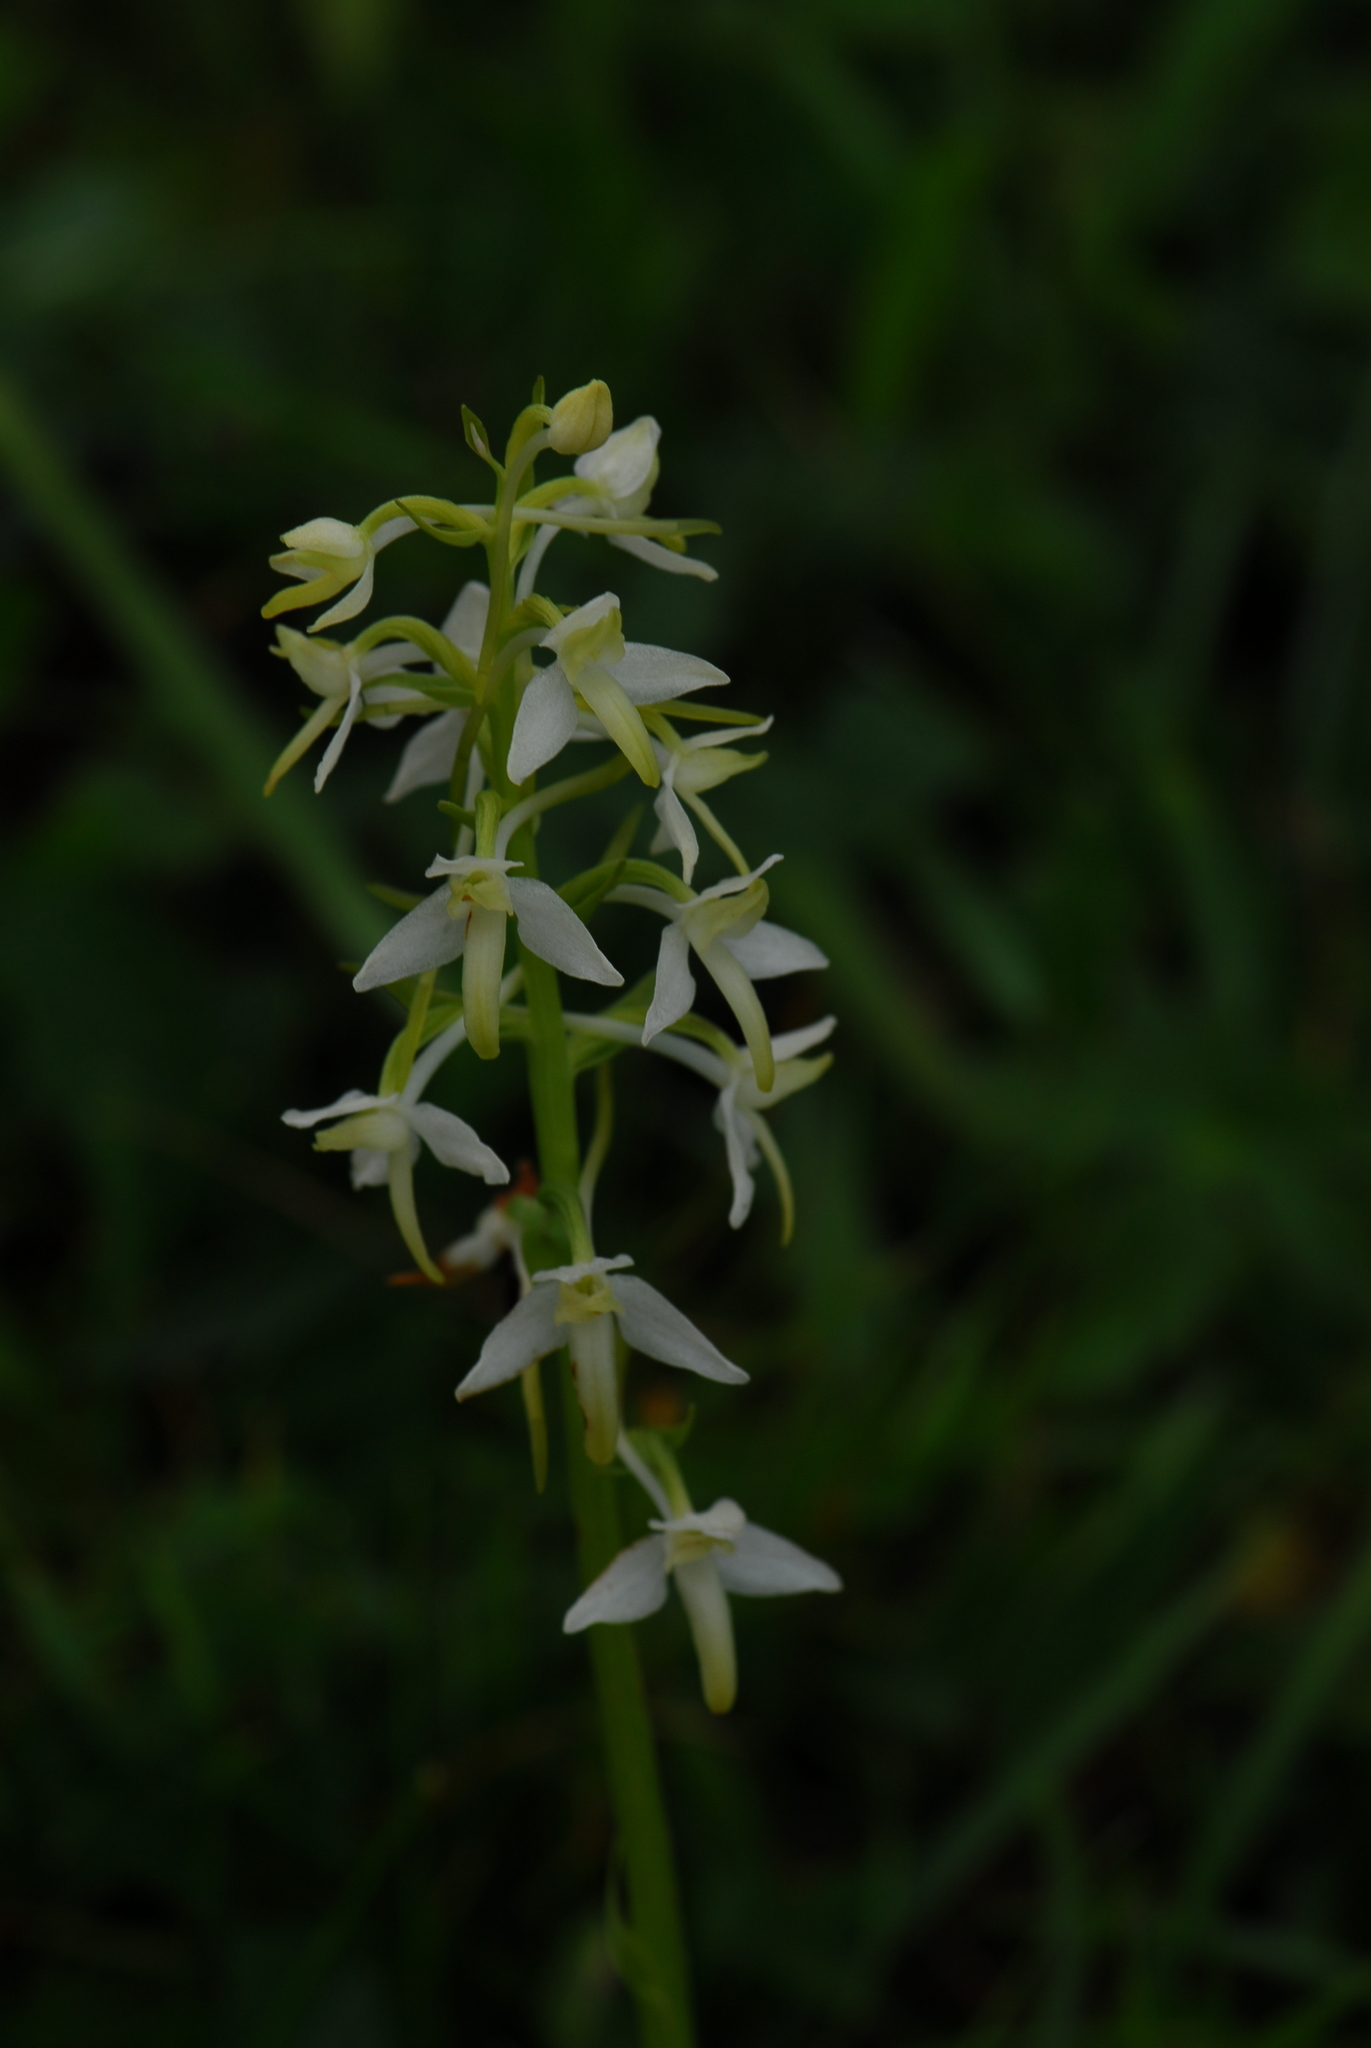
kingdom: Plantae
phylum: Tracheophyta
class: Liliopsida
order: Asparagales
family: Orchidaceae
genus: Platanthera
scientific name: Platanthera chlorantha
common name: Greater butterfly-orchid
